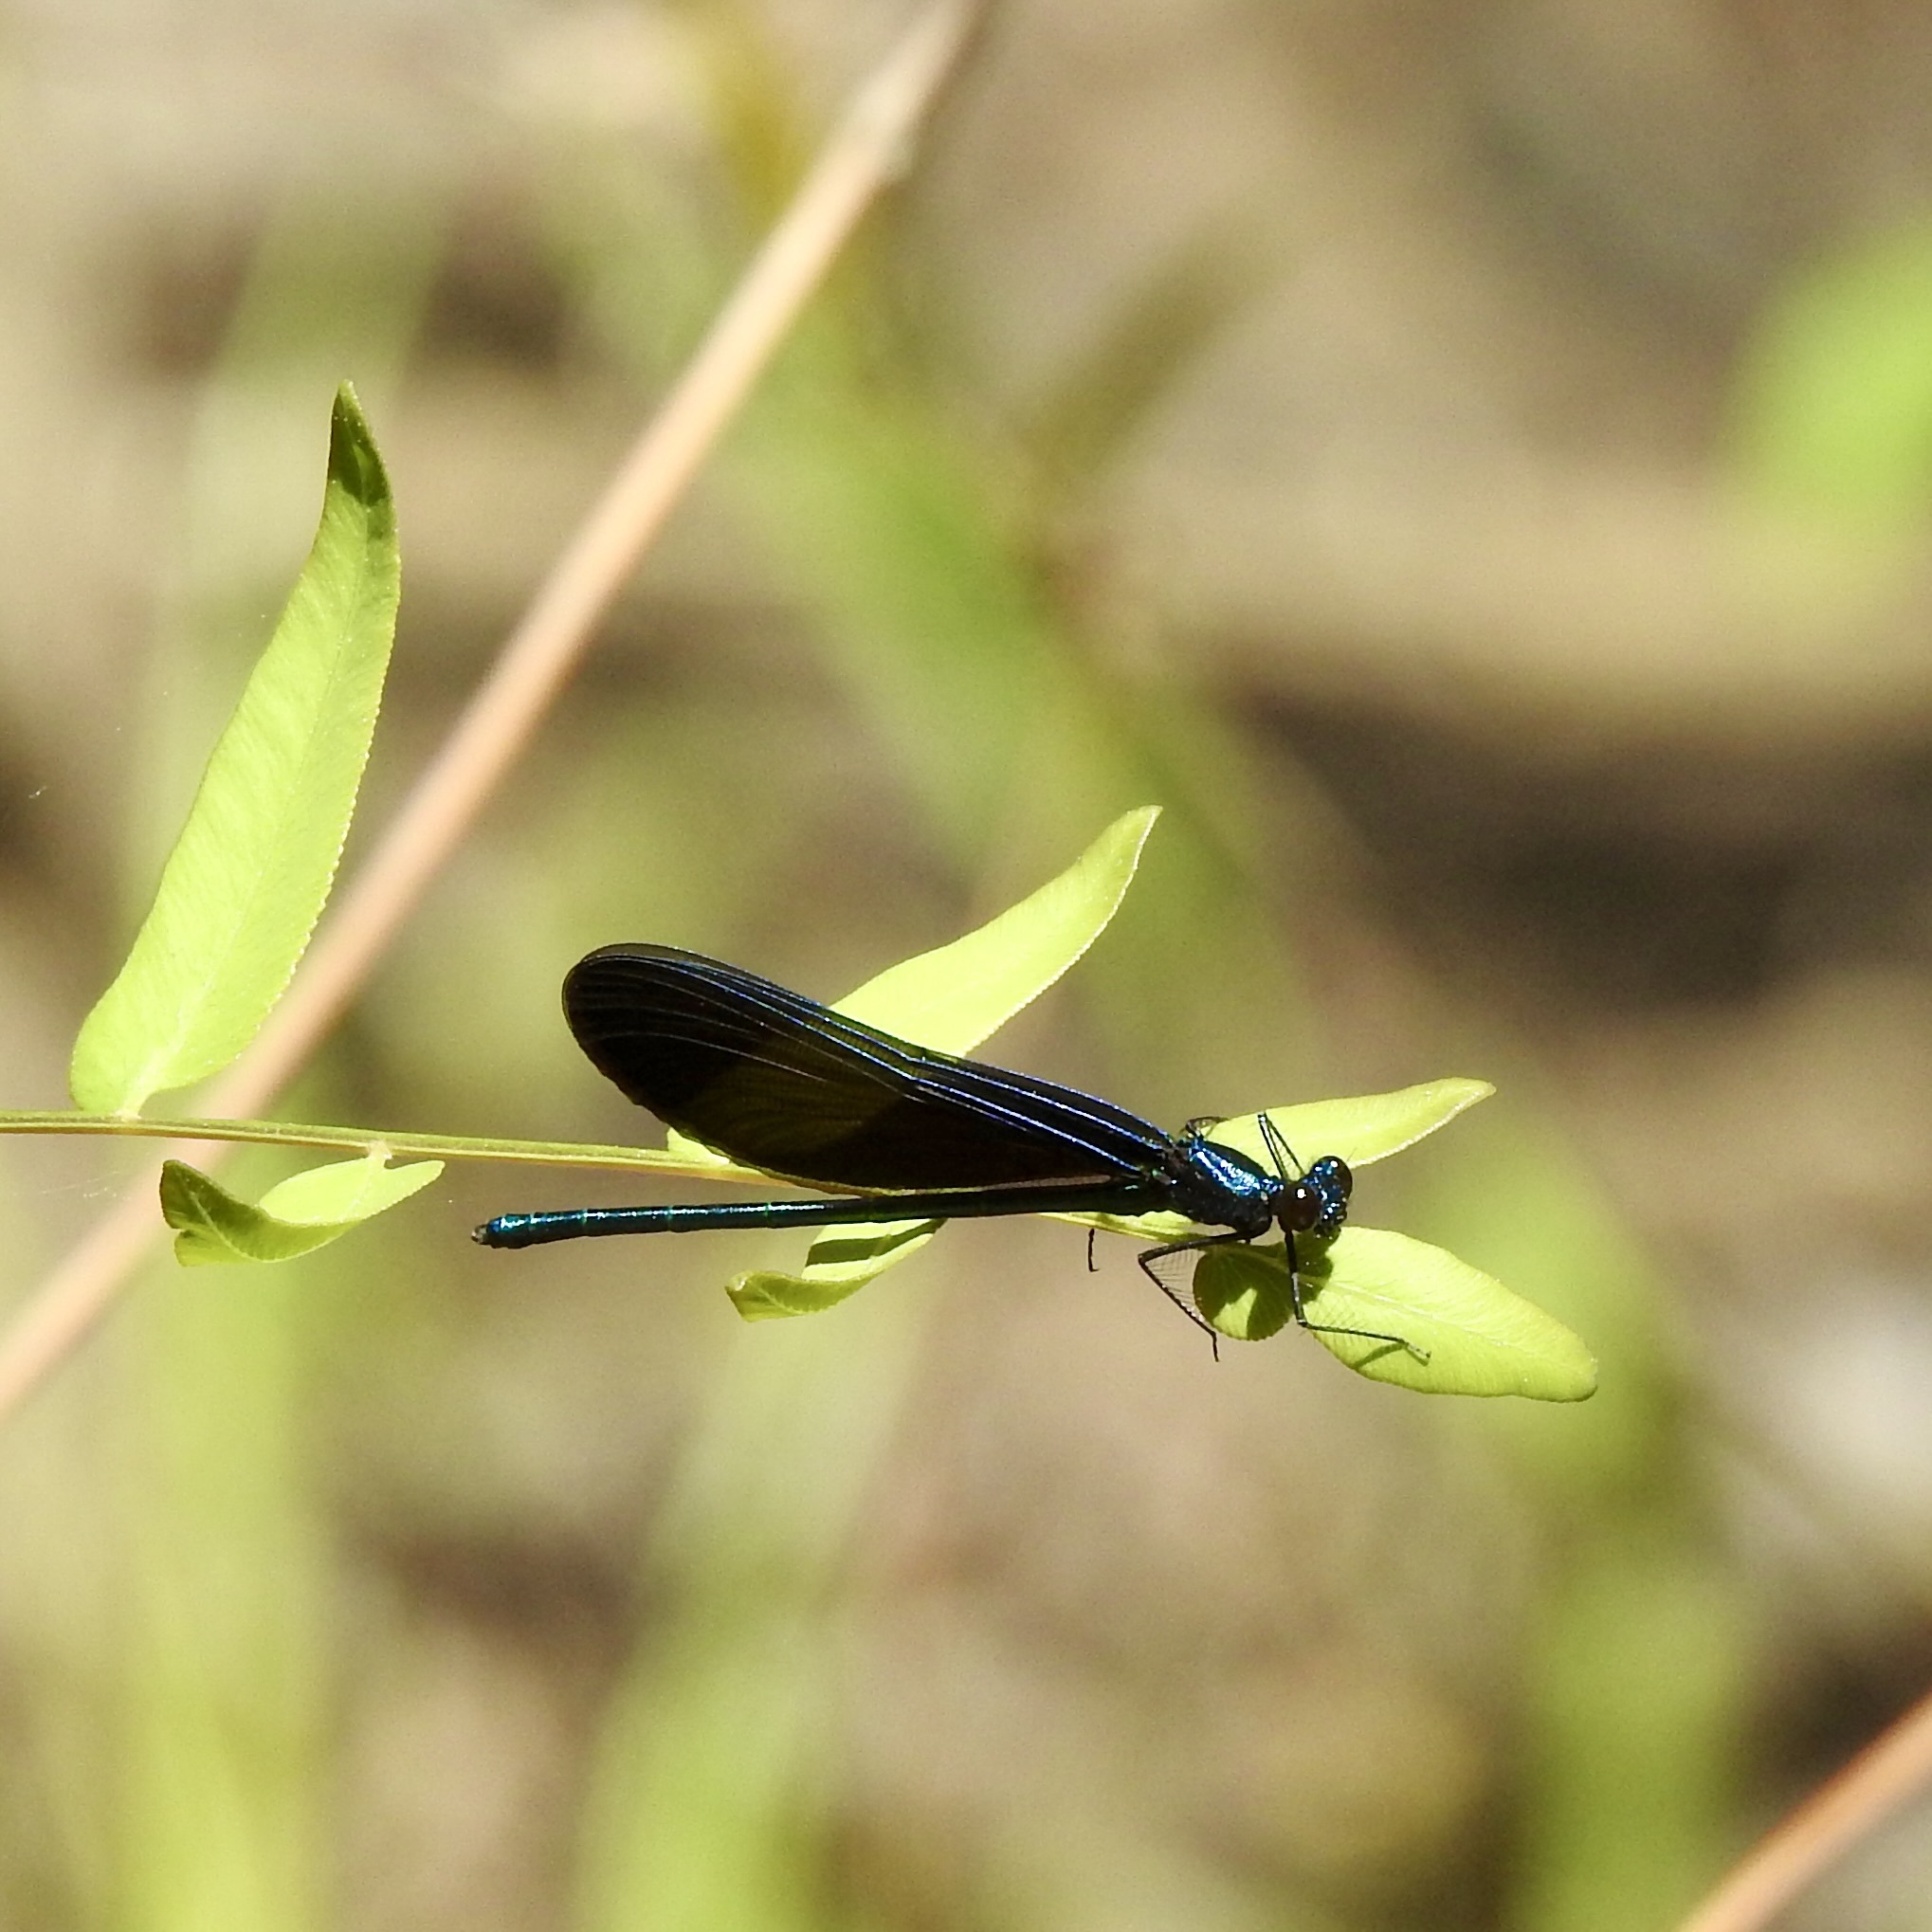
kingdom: Animalia
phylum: Arthropoda
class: Insecta
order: Odonata
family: Calopterygidae
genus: Calopteryx
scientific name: Calopteryx maculata
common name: Ebony jewelwing
